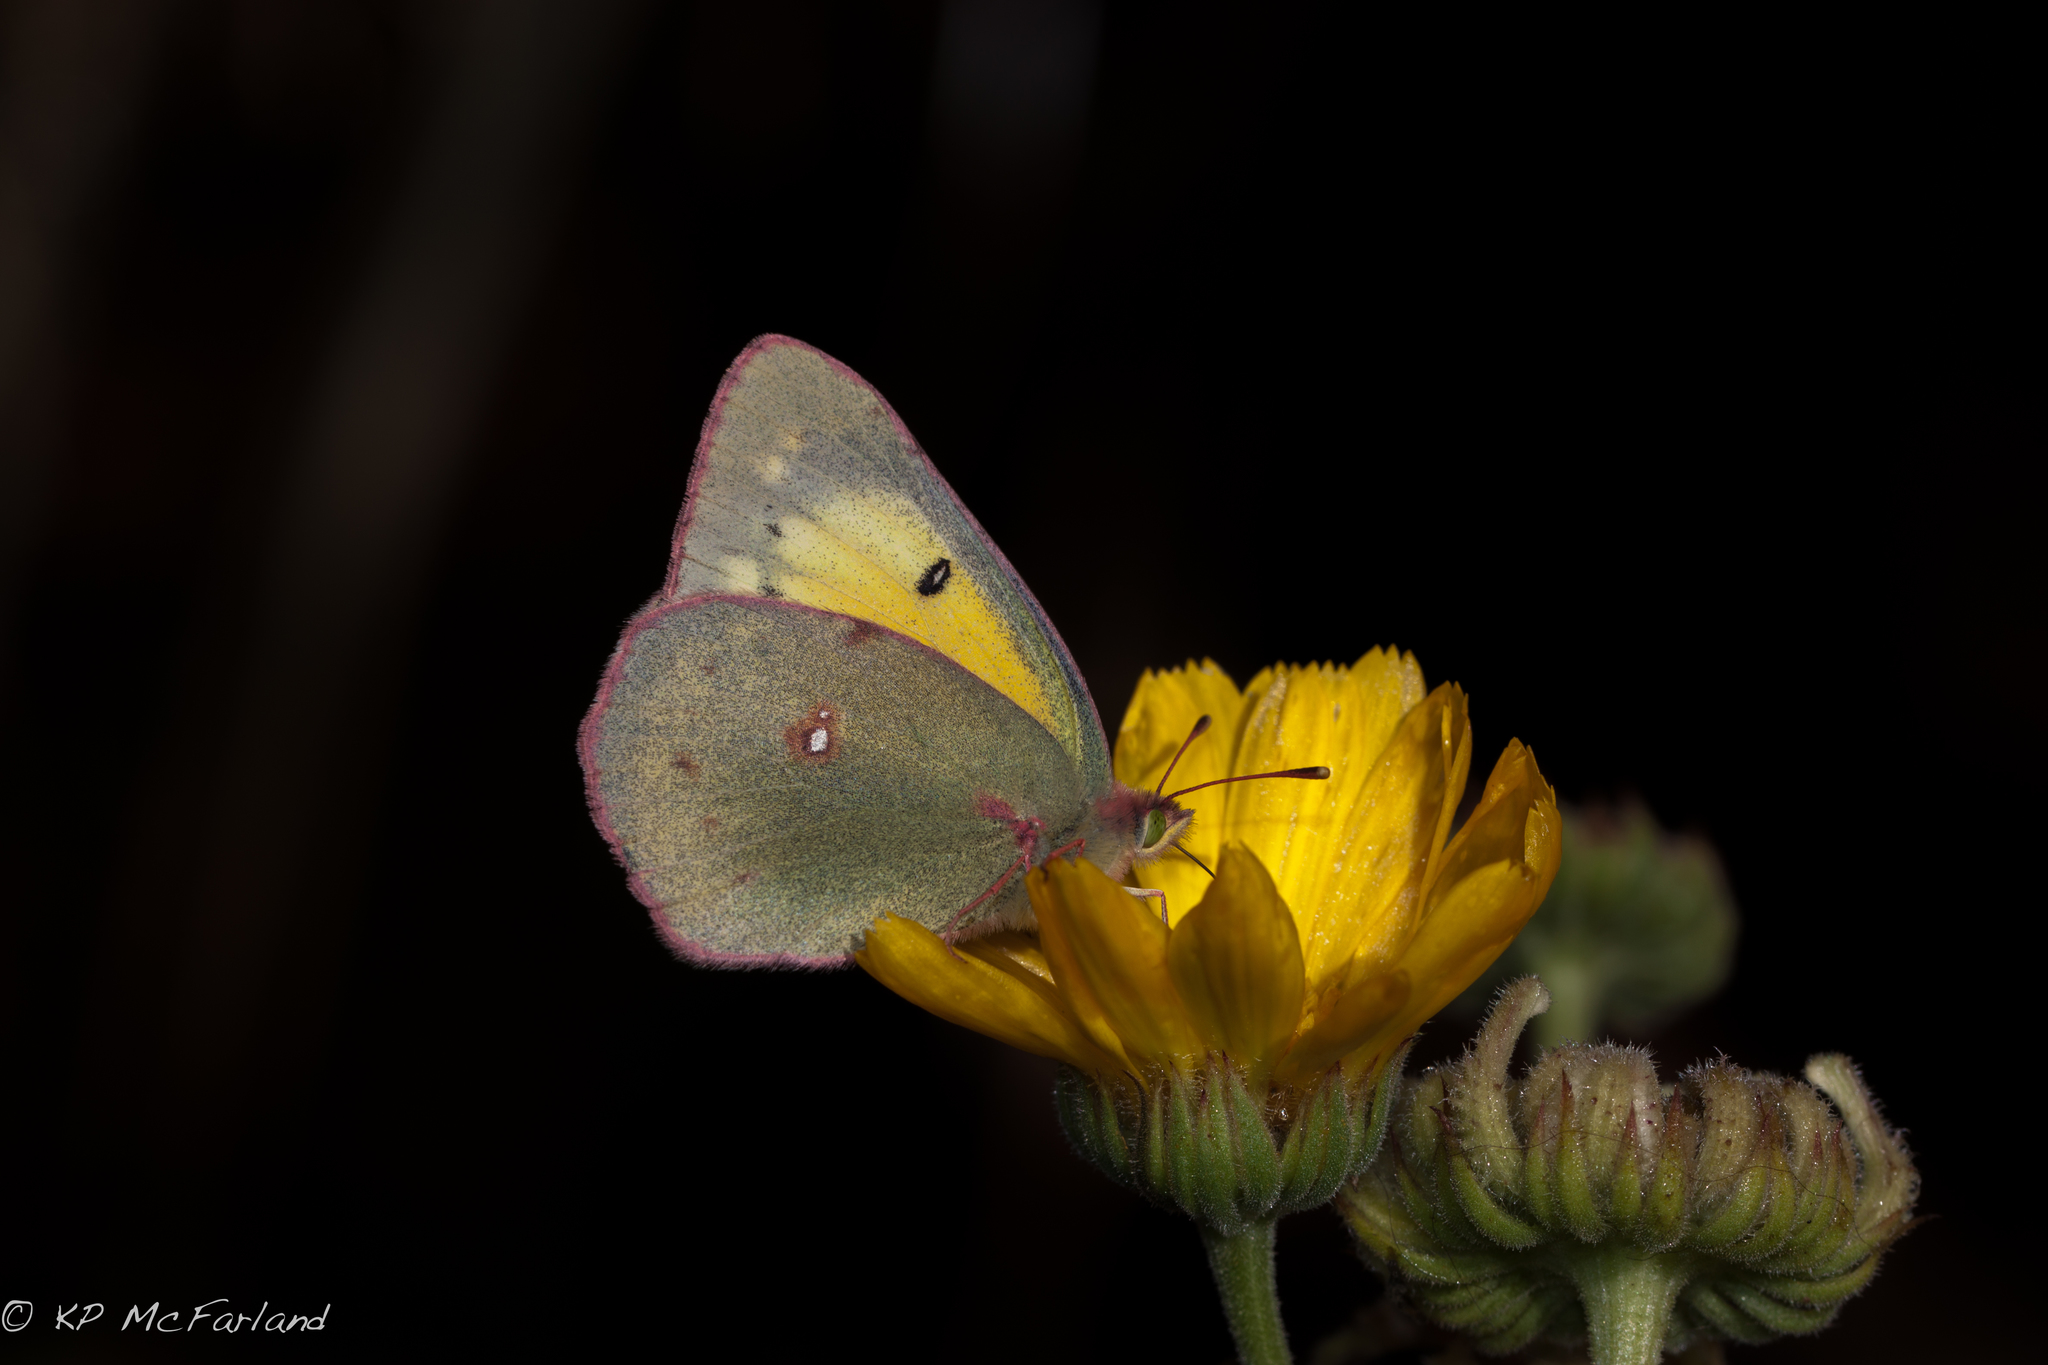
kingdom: Animalia
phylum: Arthropoda
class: Insecta
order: Lepidoptera
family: Pieridae
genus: Colias
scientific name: Colias eurytheme
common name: Alfalfa butterfly
